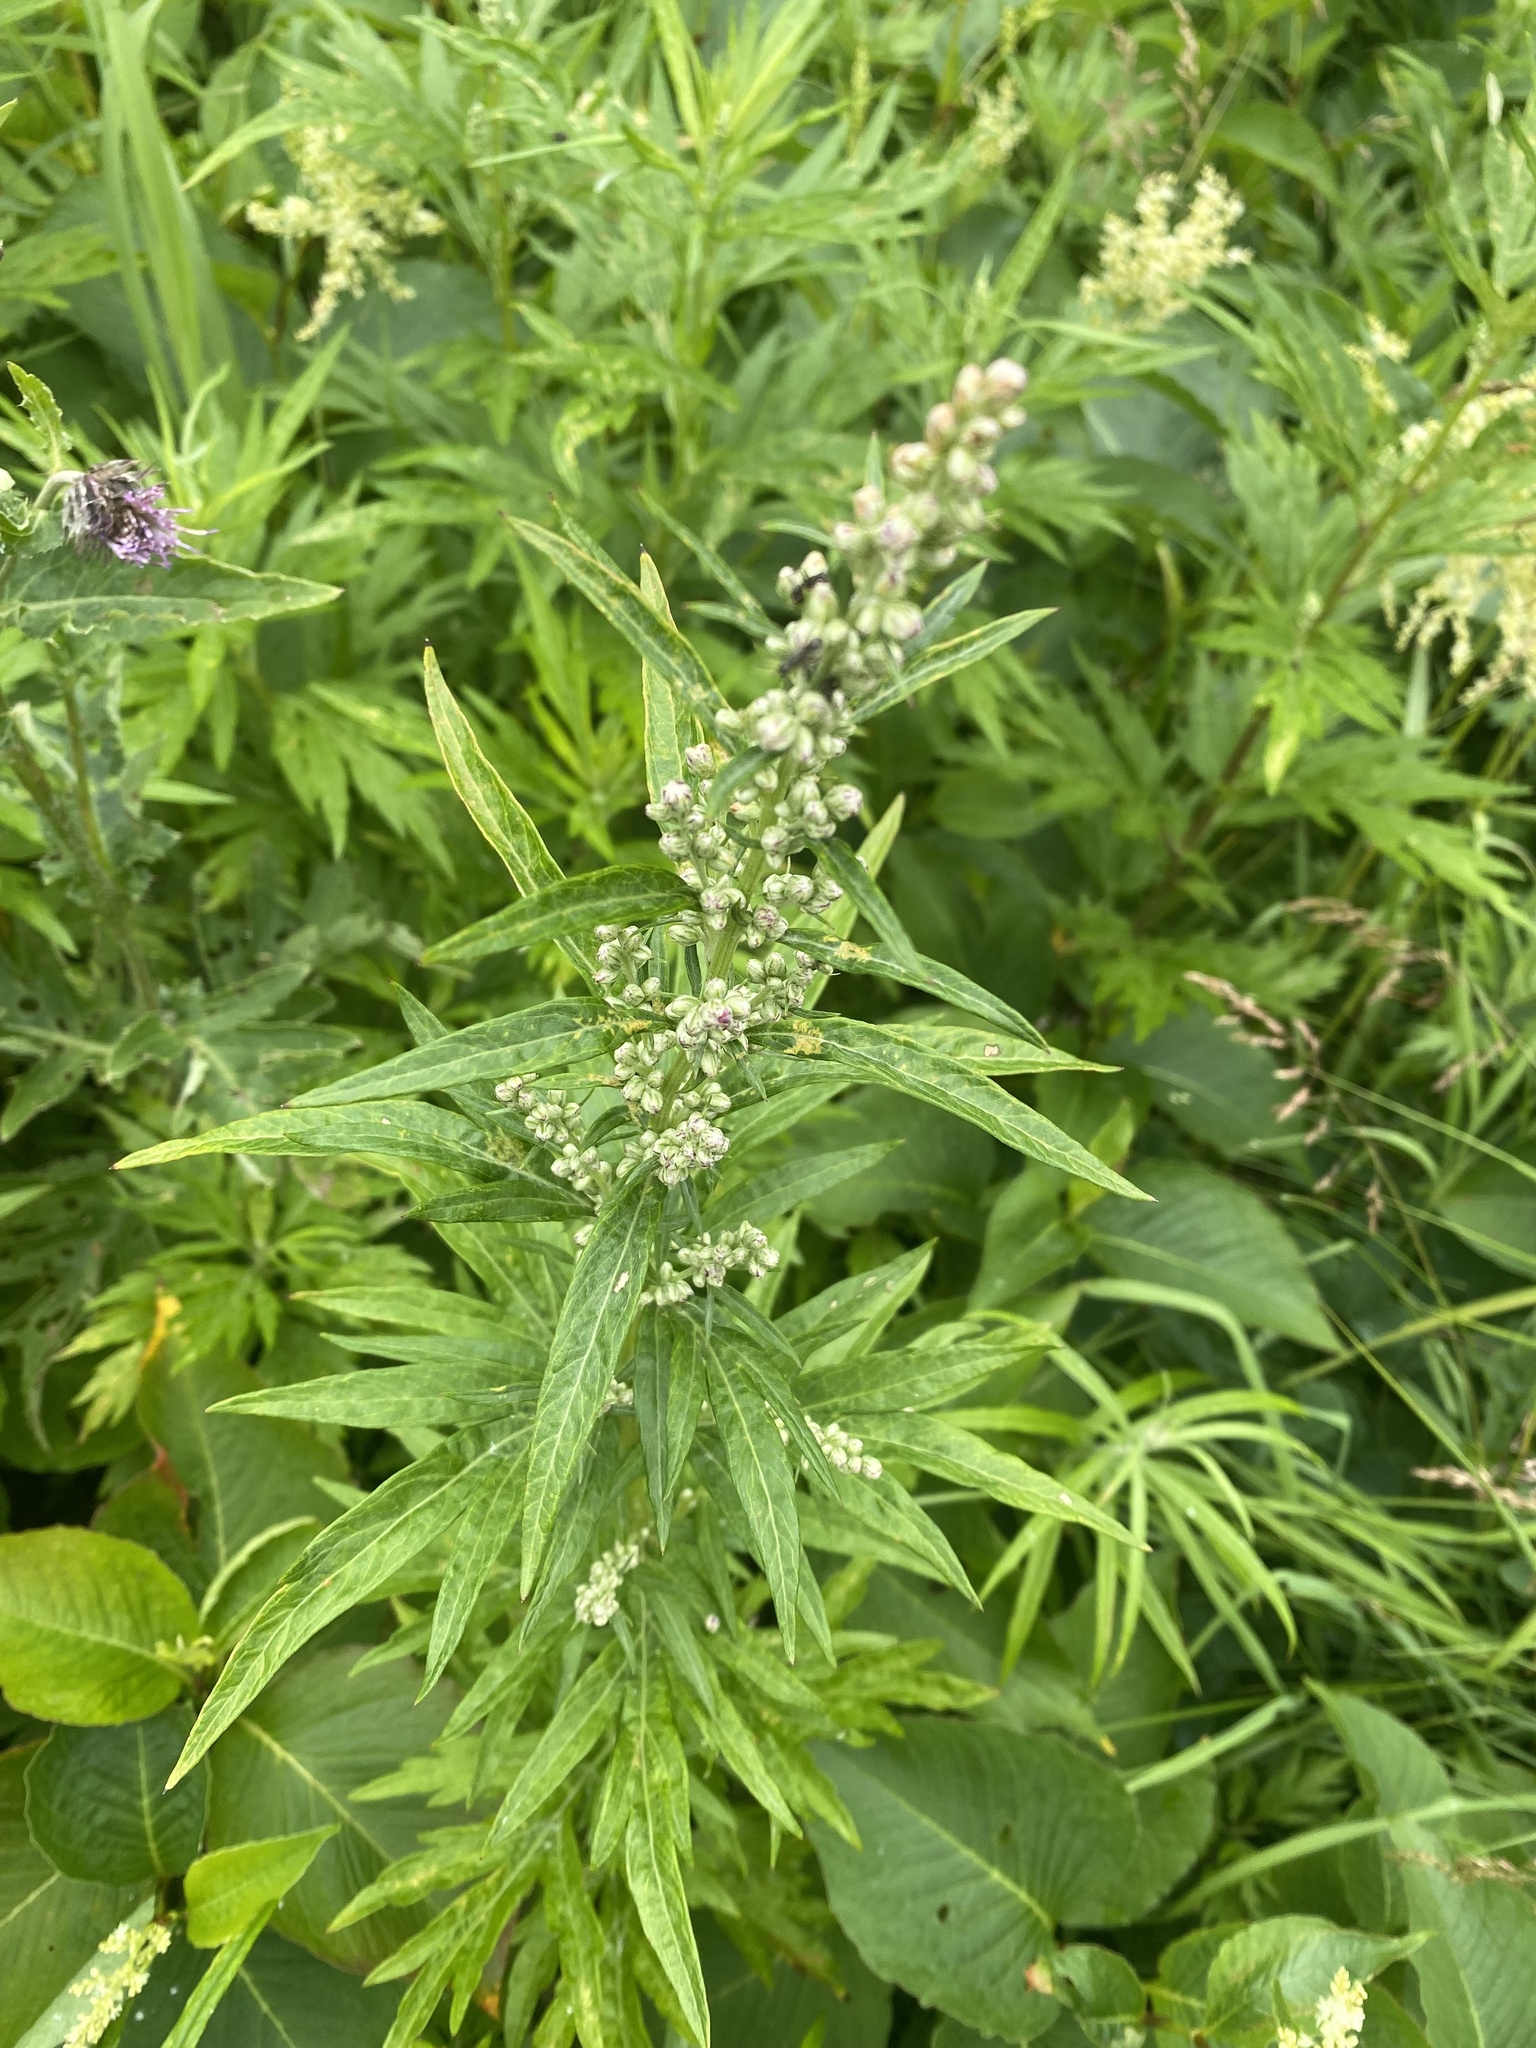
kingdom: Plantae
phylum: Tracheophyta
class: Magnoliopsida
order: Asterales
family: Asteraceae
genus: Jacobaea
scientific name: Jacobaea cannabifolia
